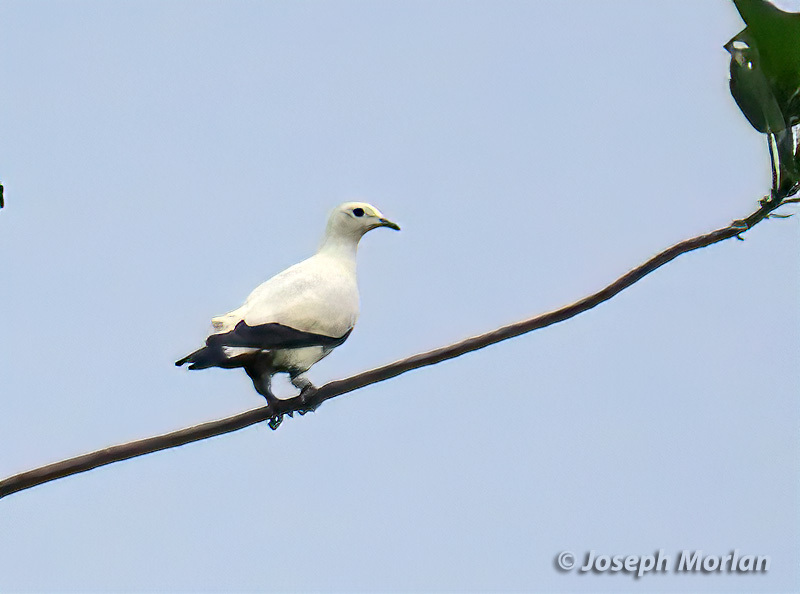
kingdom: Animalia
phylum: Chordata
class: Aves
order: Columbiformes
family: Columbidae
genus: Ducula
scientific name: Ducula bicolor
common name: Pied imperial pigeon
